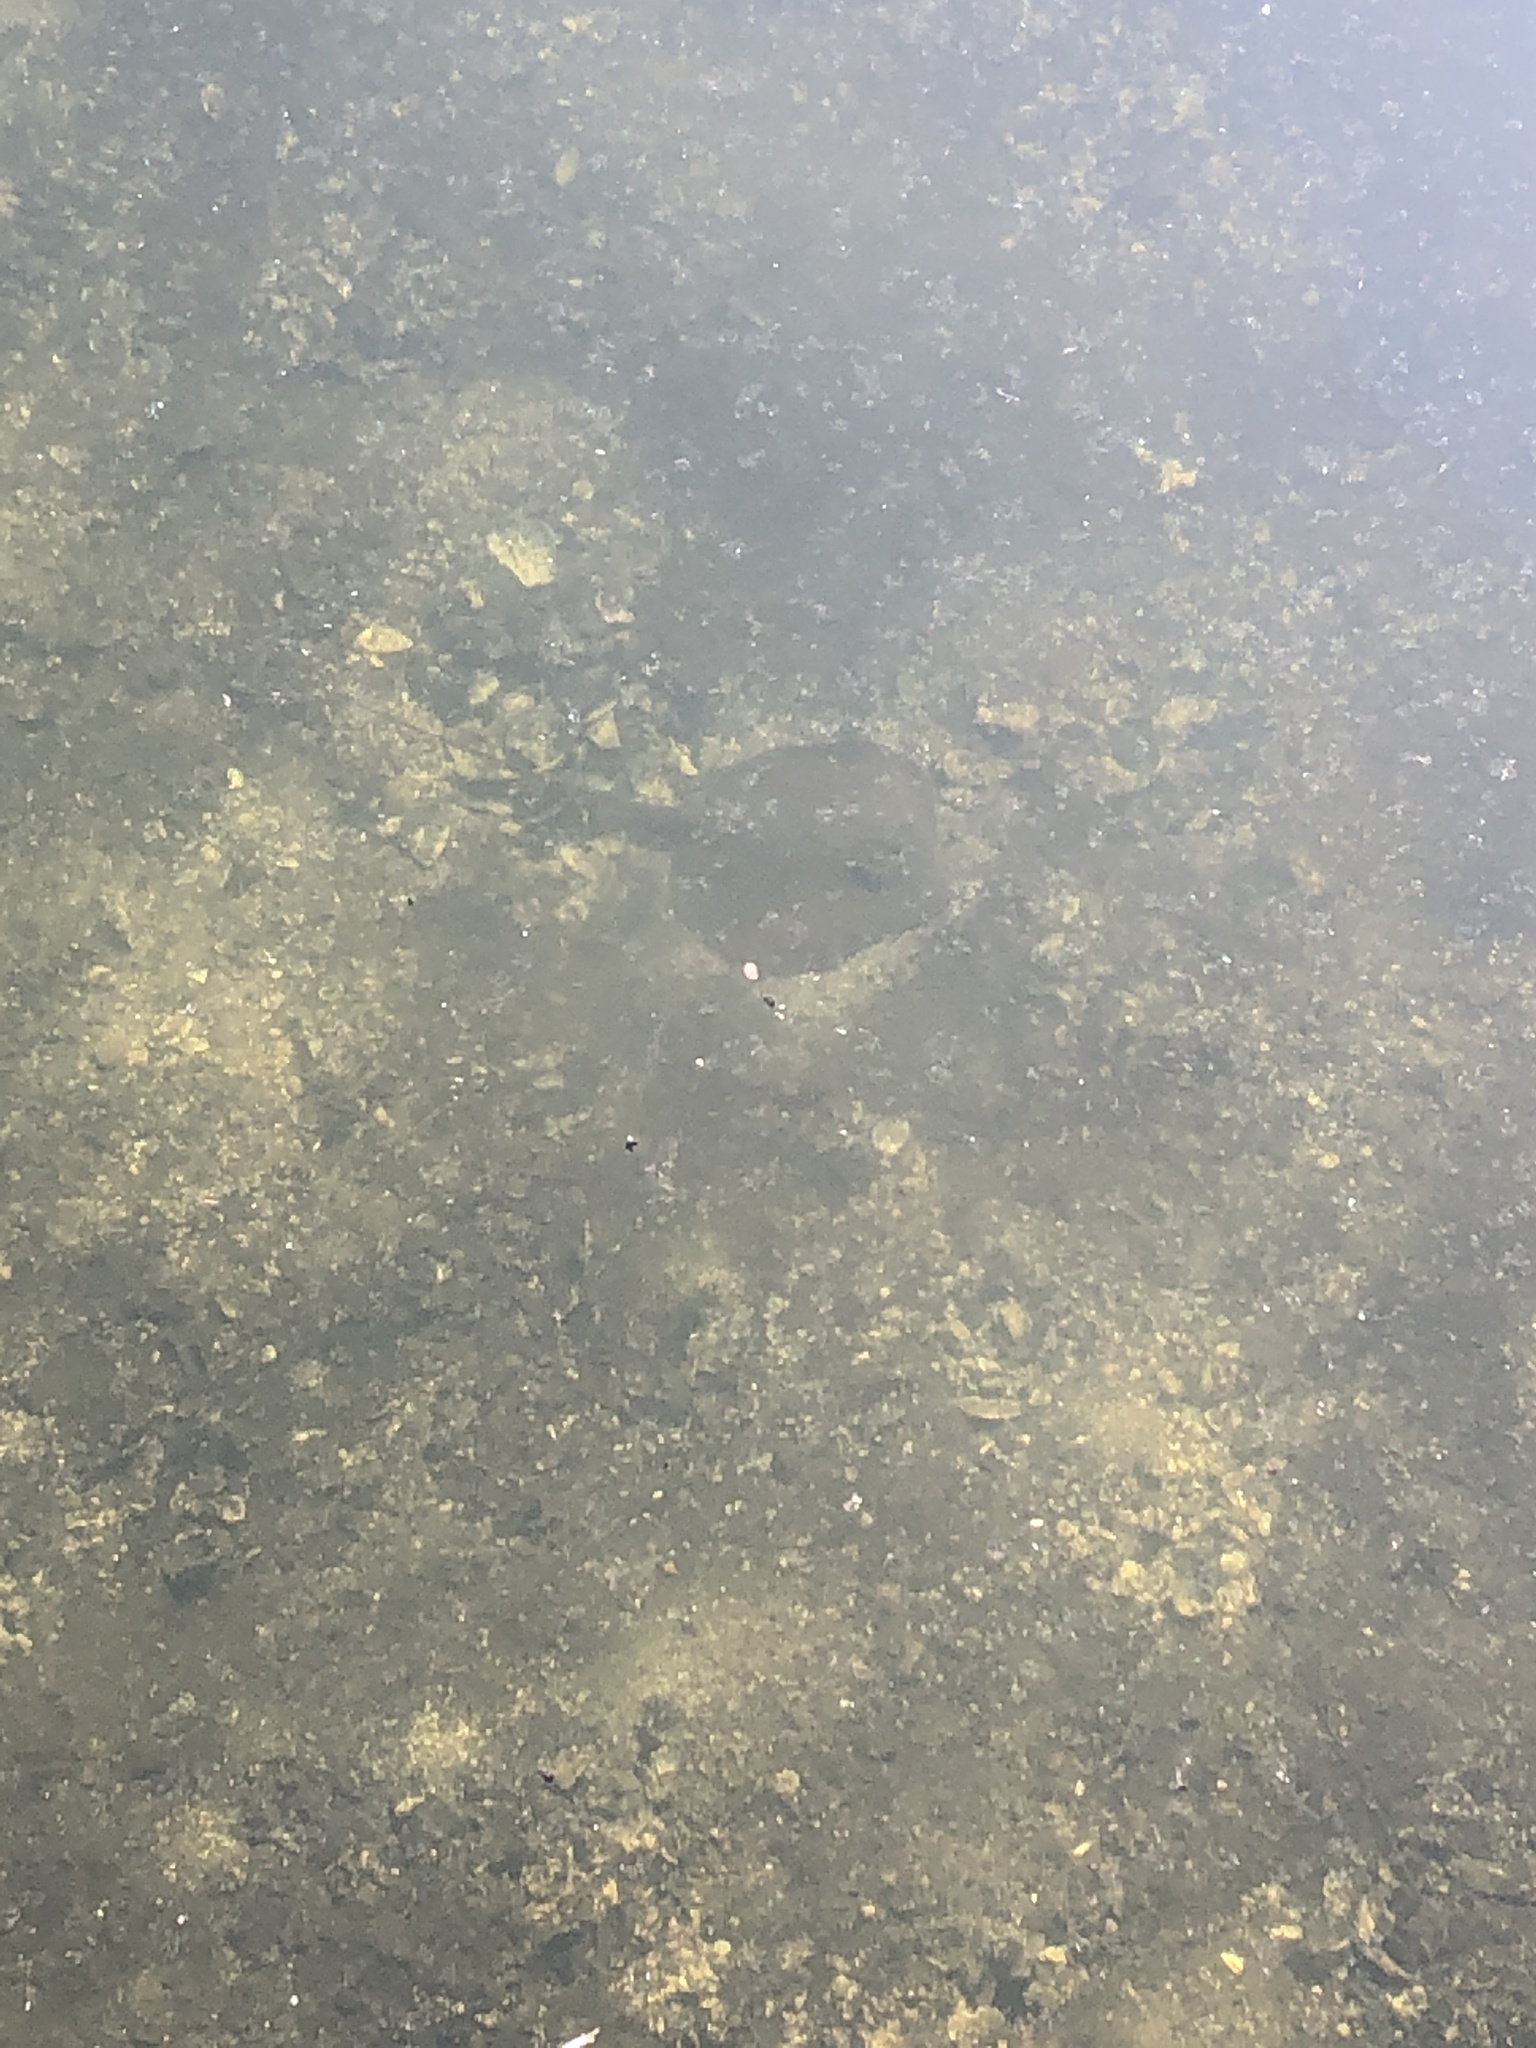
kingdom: Animalia
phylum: Chordata
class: Elasmobranchii
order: Myliobatiformes
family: Dasyatidae
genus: Hypanus
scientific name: Hypanus sabinus
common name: Atlantic stingray
